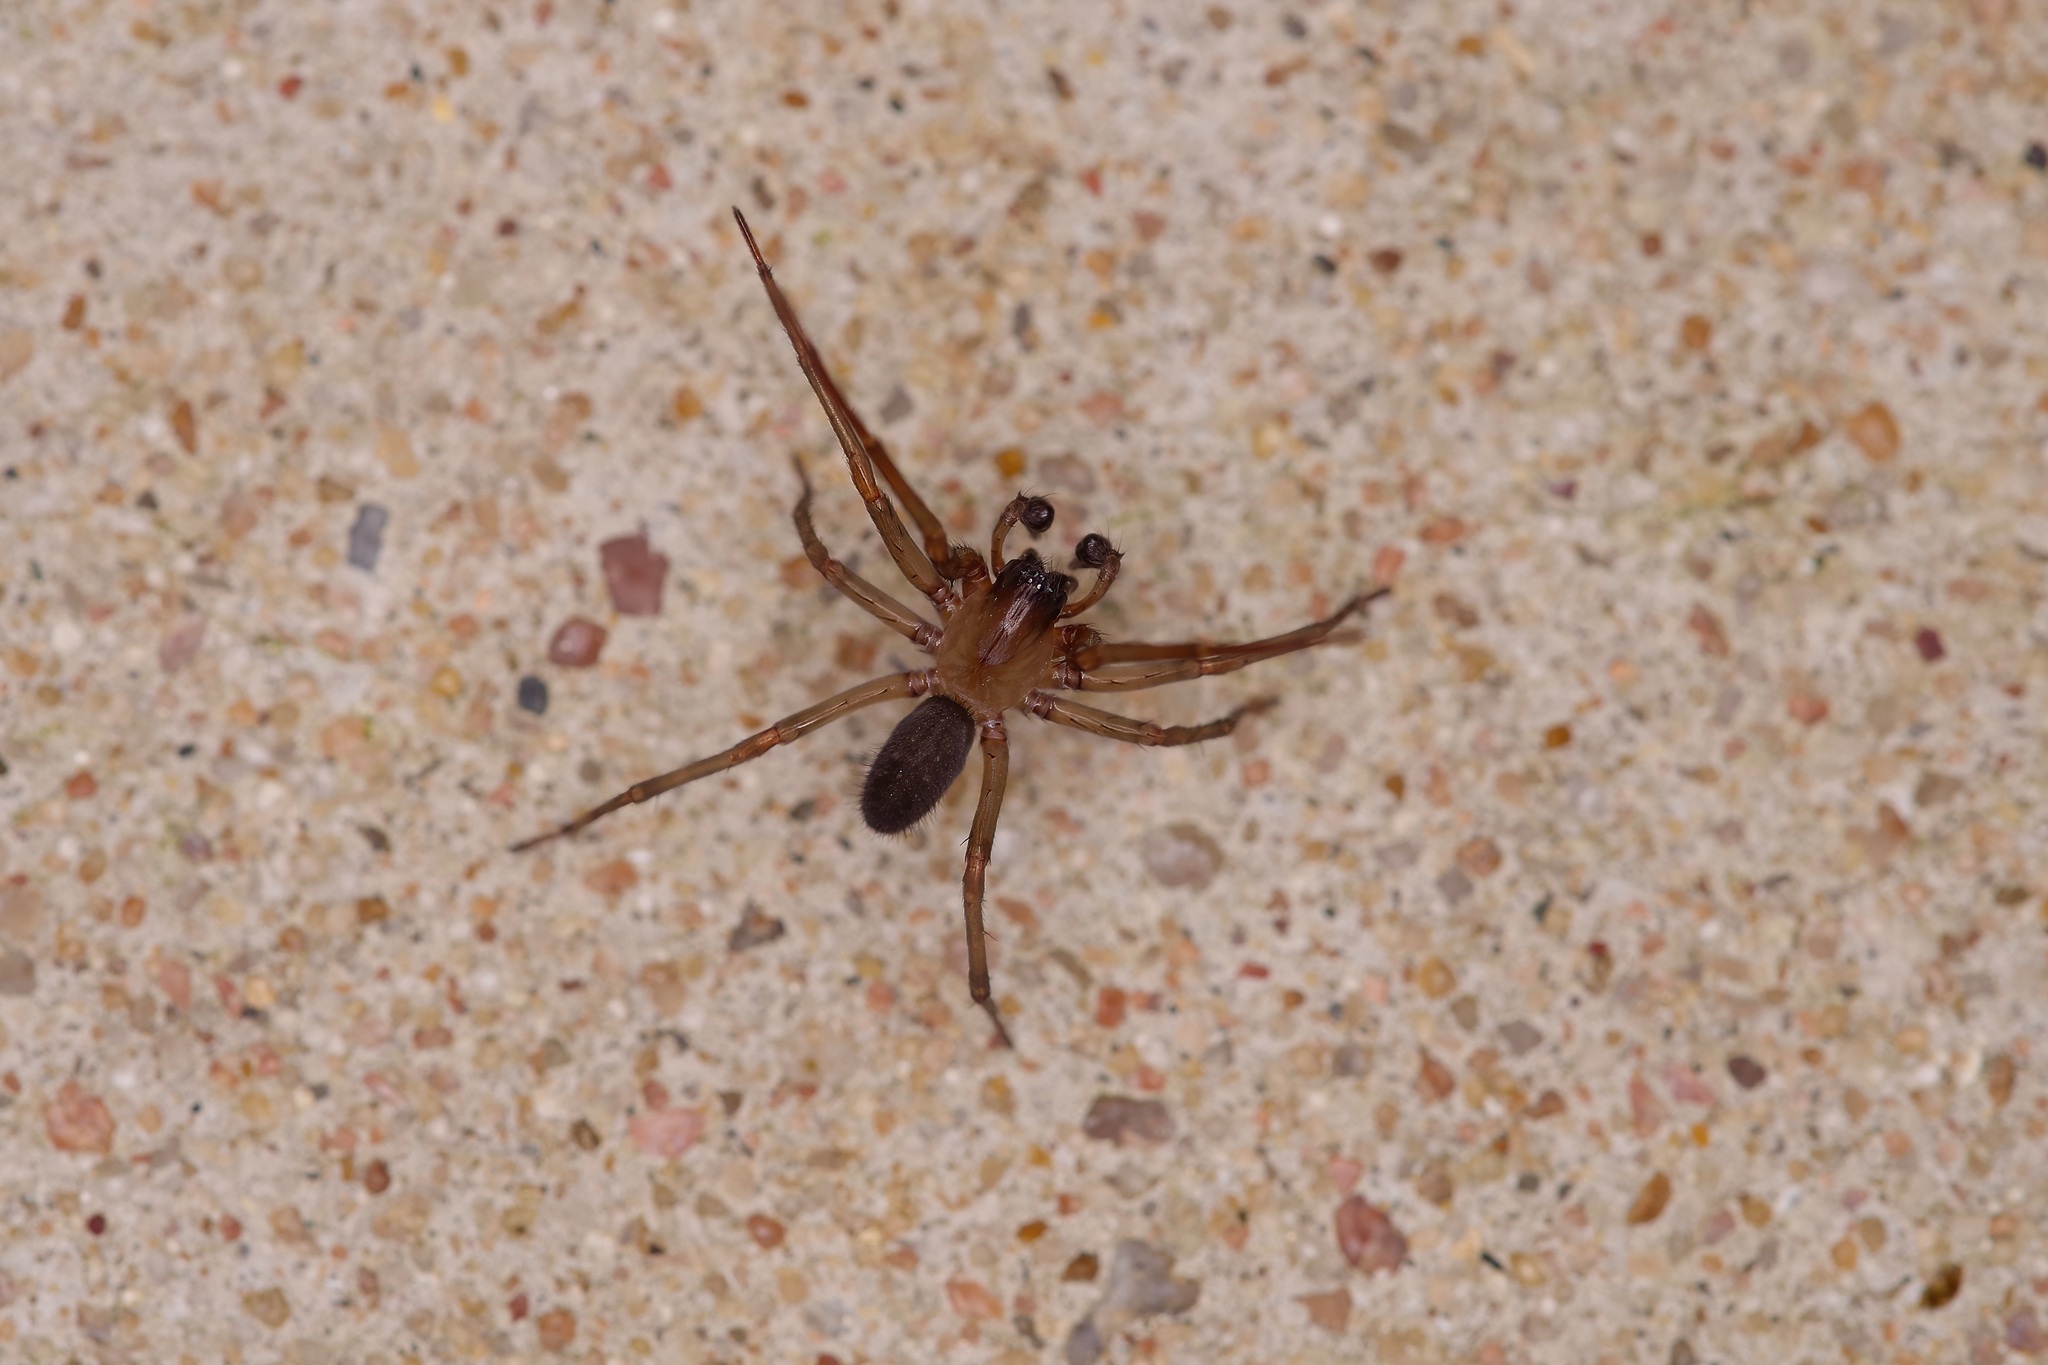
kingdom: Animalia
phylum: Arthropoda
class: Arachnida
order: Araneae
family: Desidae
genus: Metaltella
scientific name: Metaltella simoni
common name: Cribellate spider
